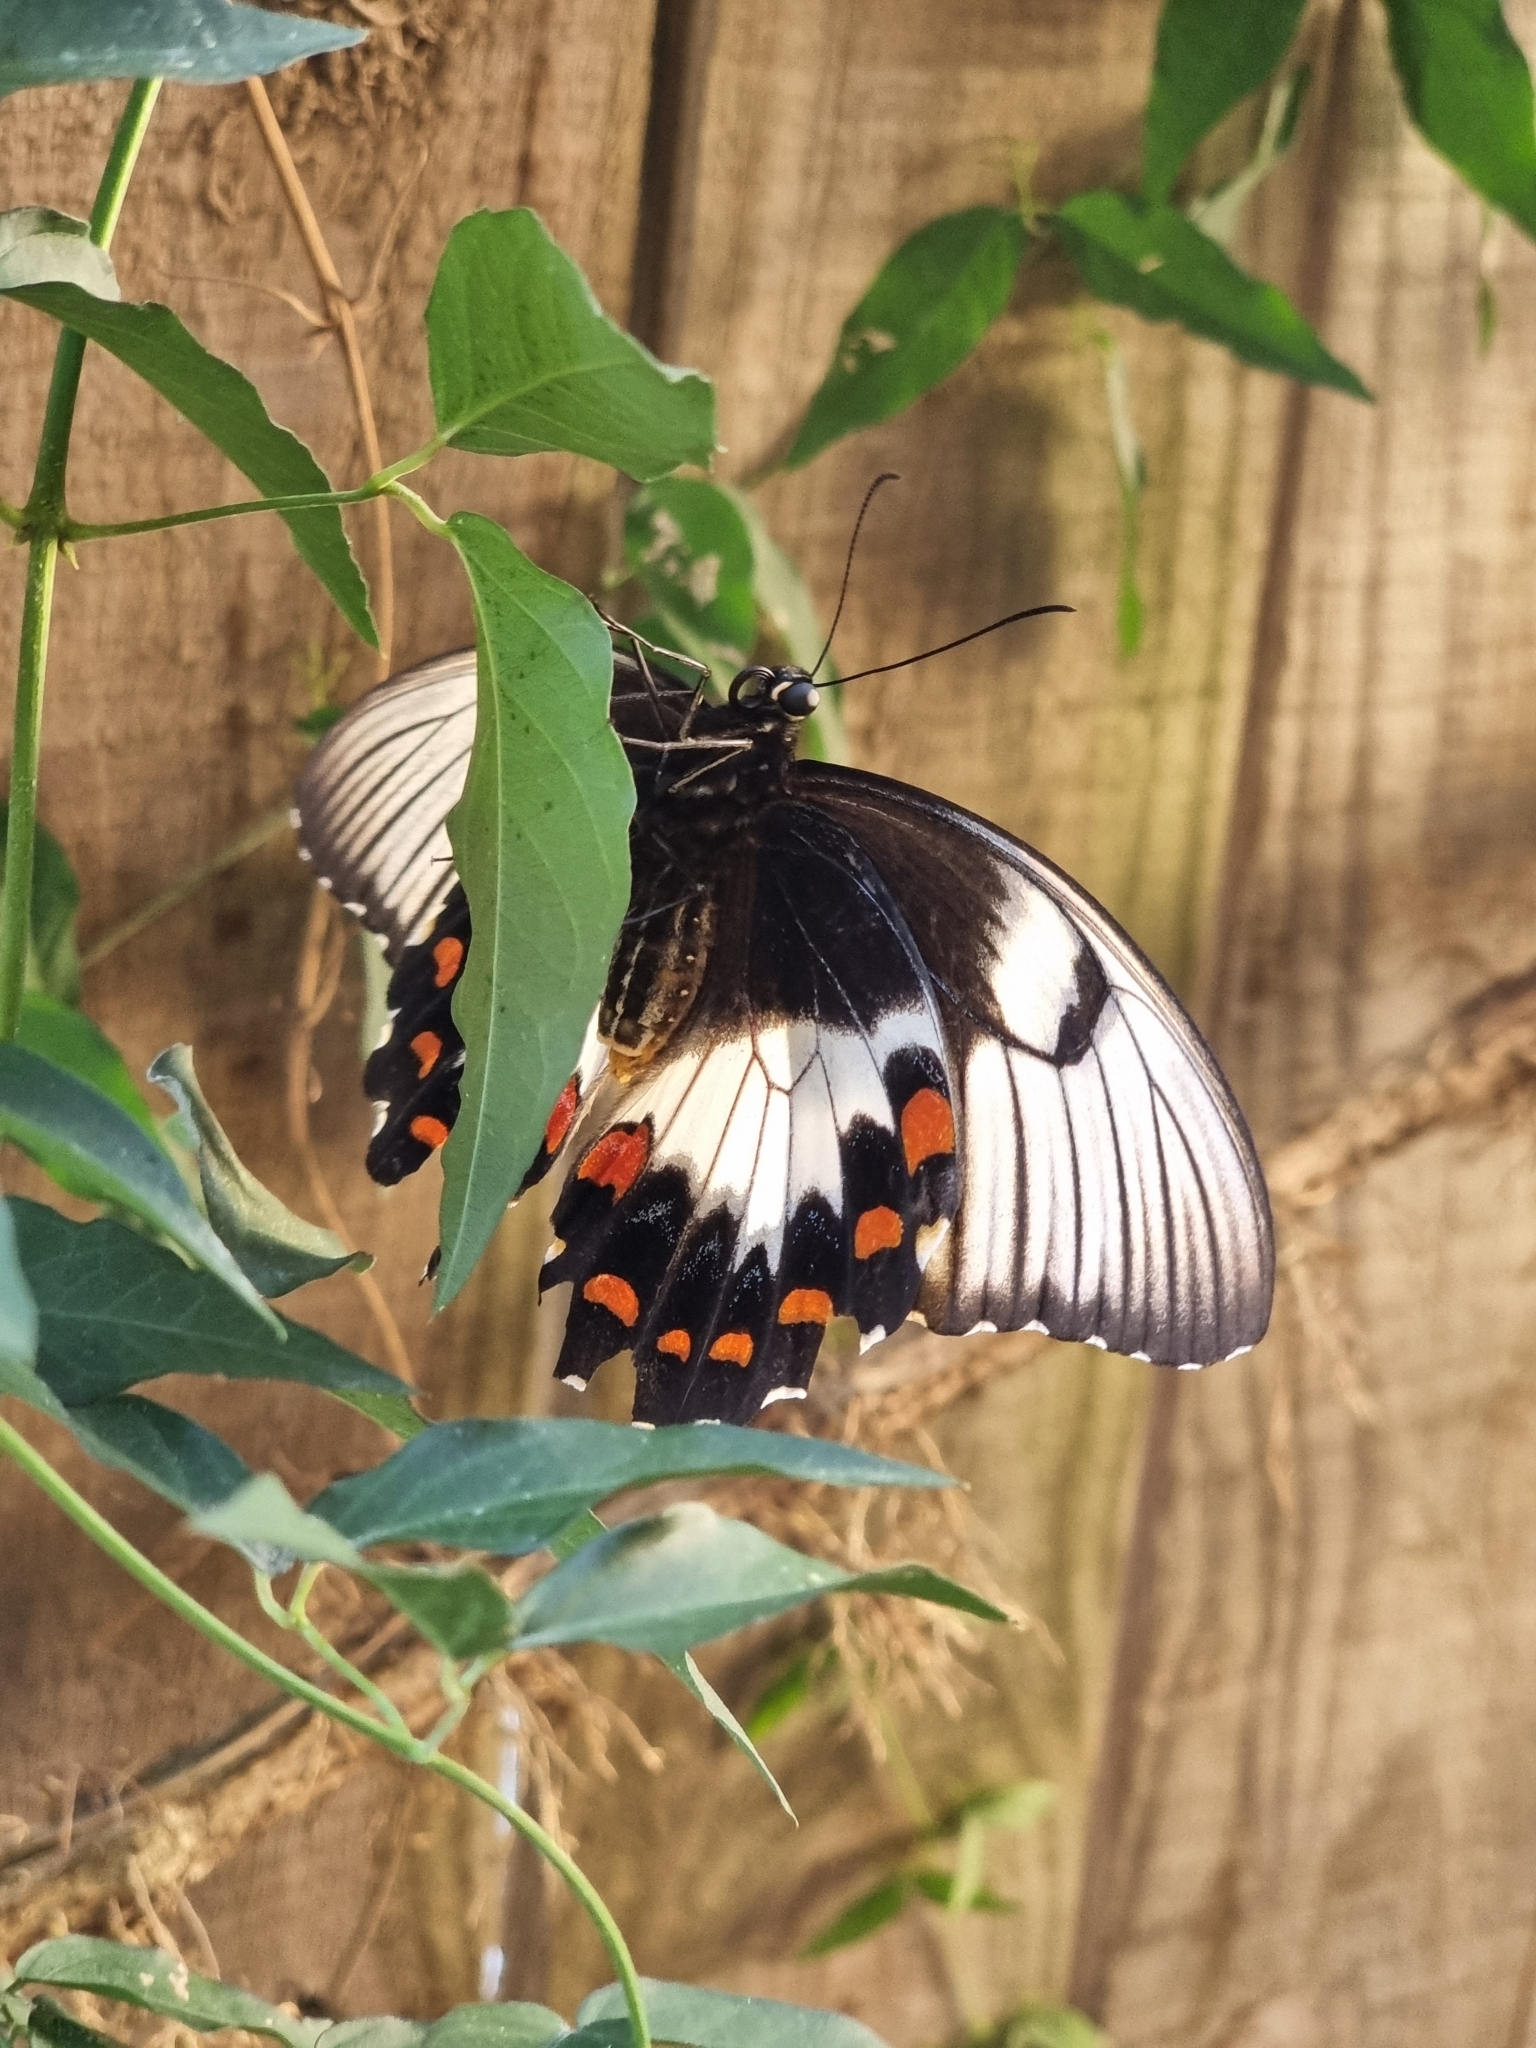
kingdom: Animalia
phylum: Arthropoda
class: Insecta
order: Lepidoptera
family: Papilionidae
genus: Papilio
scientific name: Papilio aegeus
